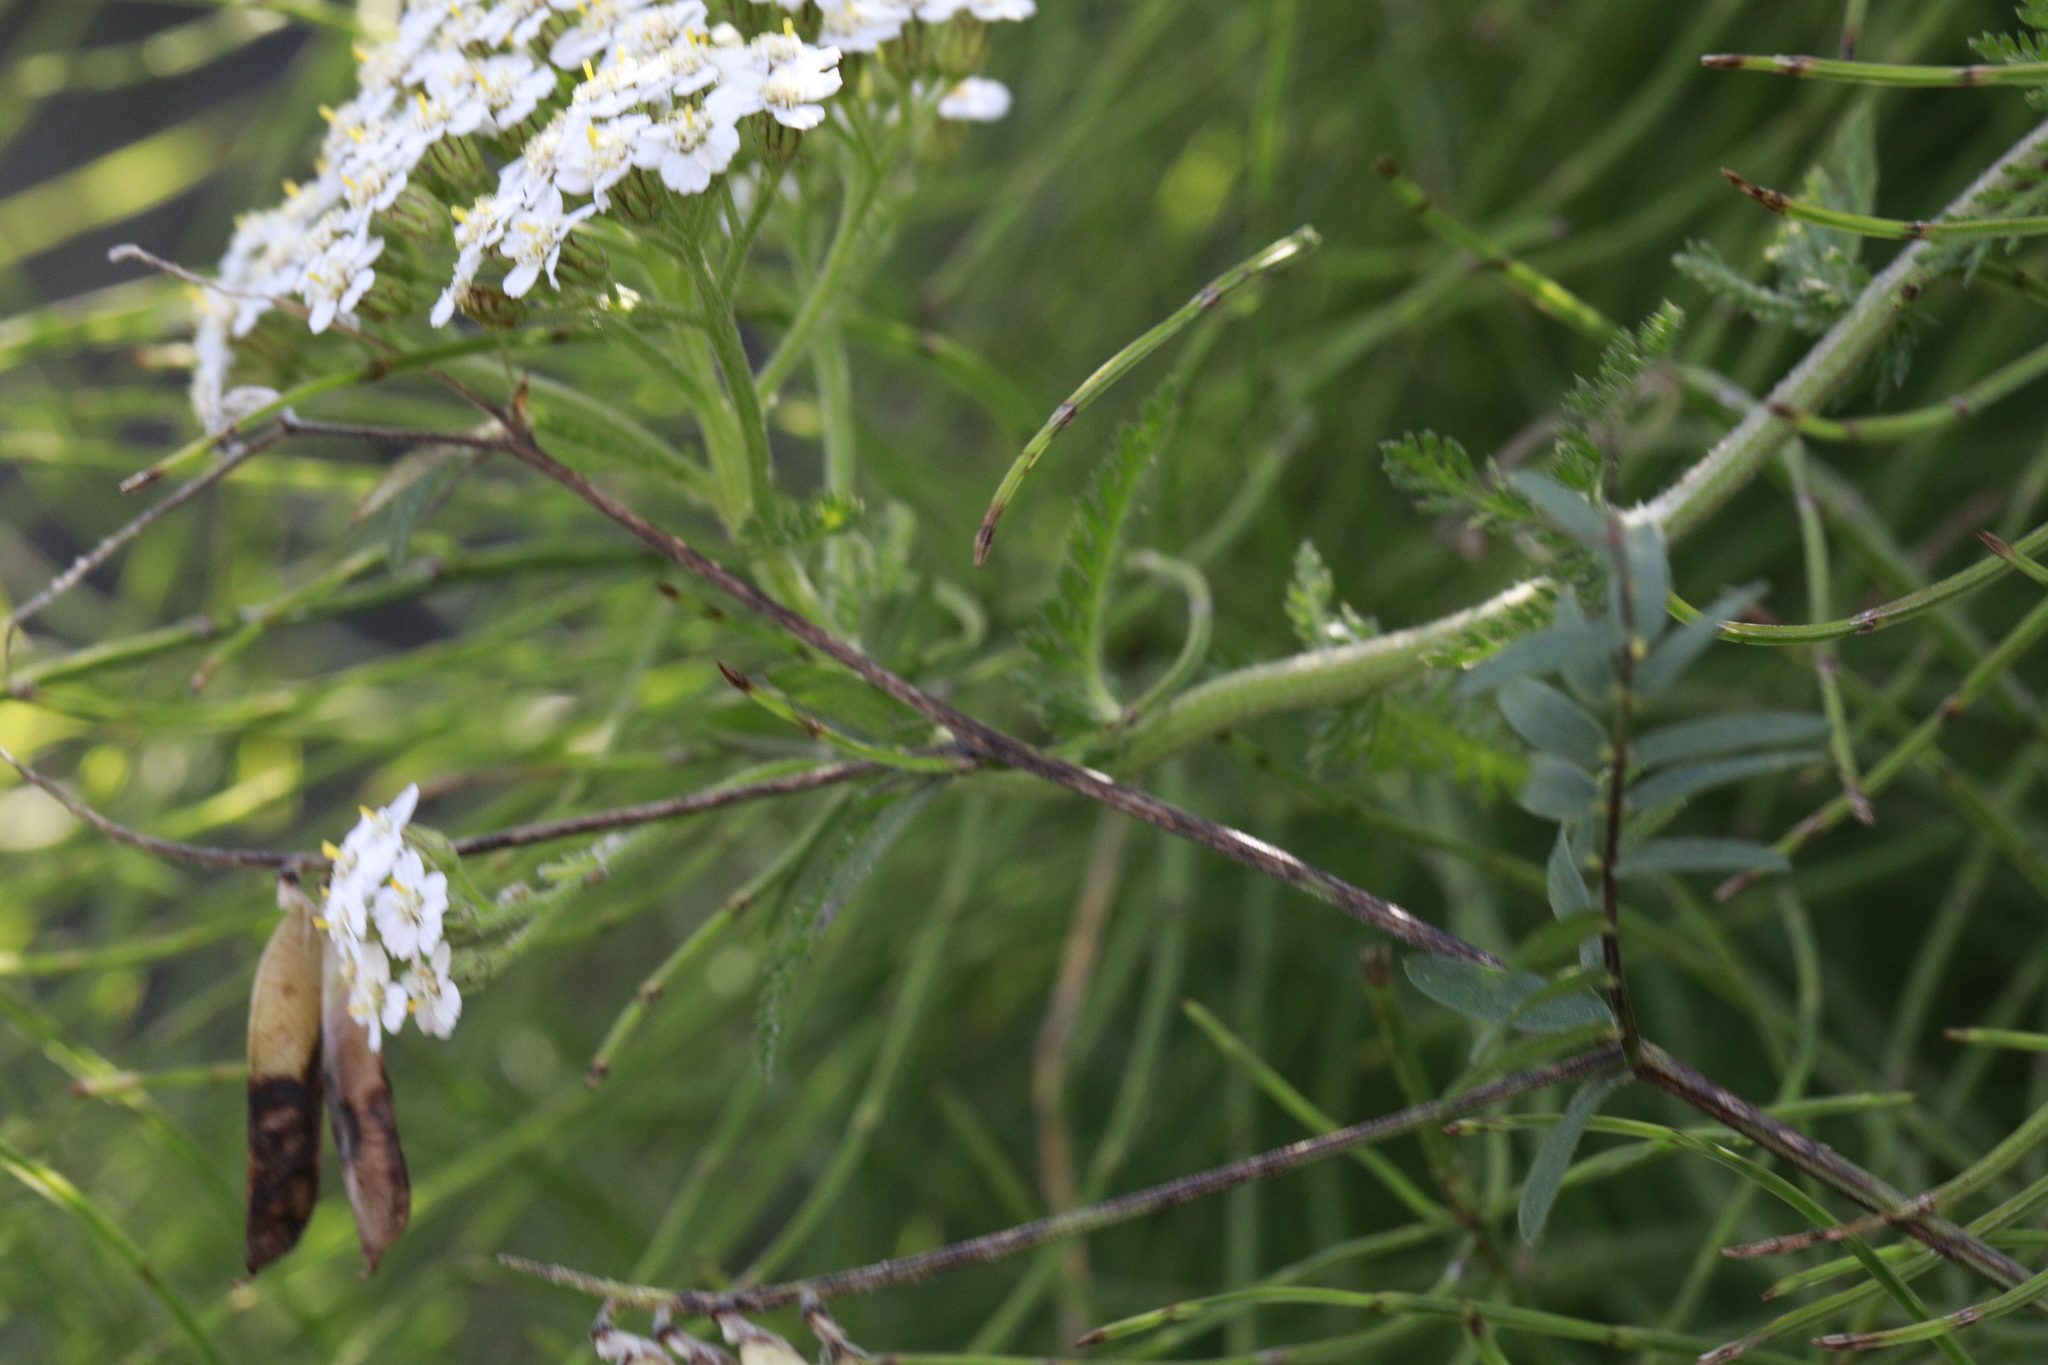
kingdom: Plantae
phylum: Tracheophyta
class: Magnoliopsida
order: Asterales
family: Asteraceae
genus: Achillea
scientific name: Achillea millefolium
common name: Yarrow
